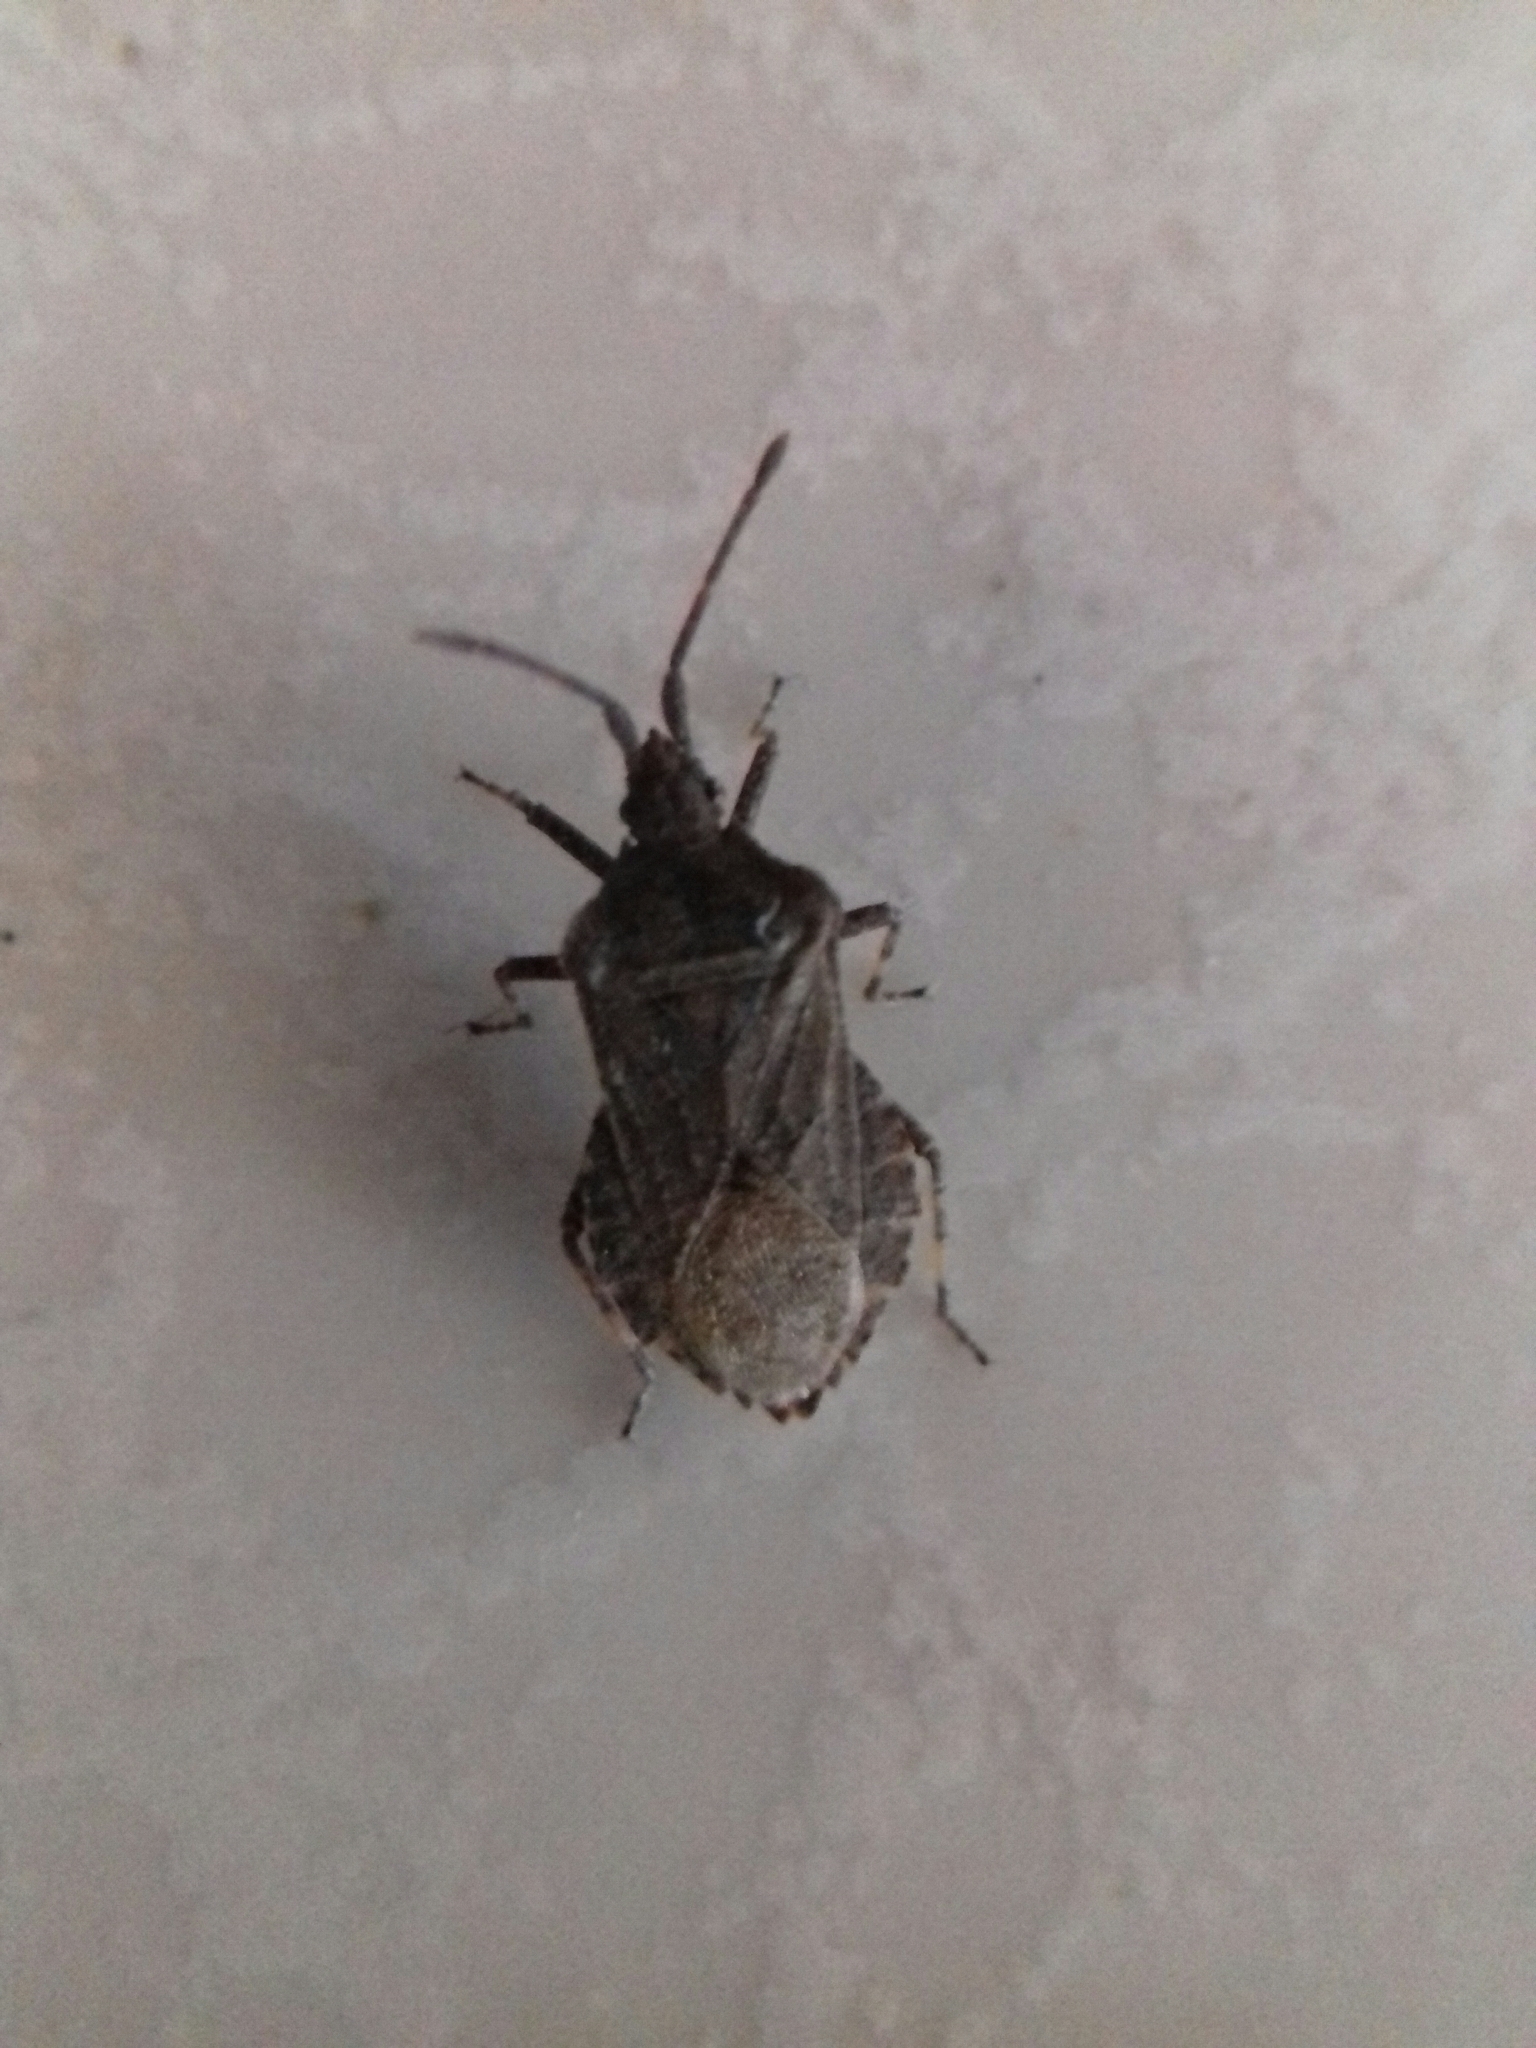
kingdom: Animalia
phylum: Arthropoda
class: Insecta
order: Hemiptera
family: Coreidae
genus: Villasitocoris
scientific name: Villasitocoris inconspicuus
